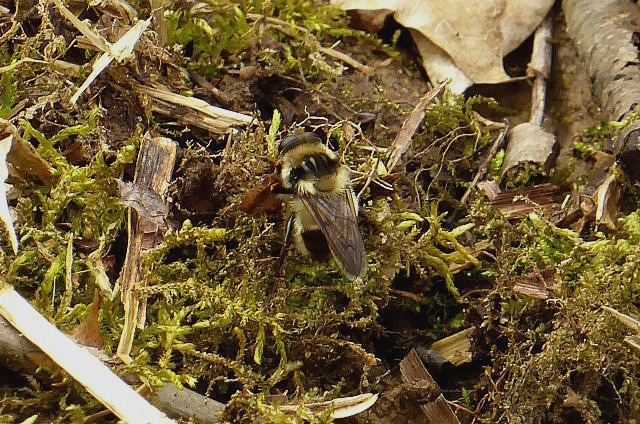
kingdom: Animalia
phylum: Arthropoda
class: Insecta
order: Diptera
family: Syrphidae
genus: Criorhina
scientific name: Criorhina verbosa
